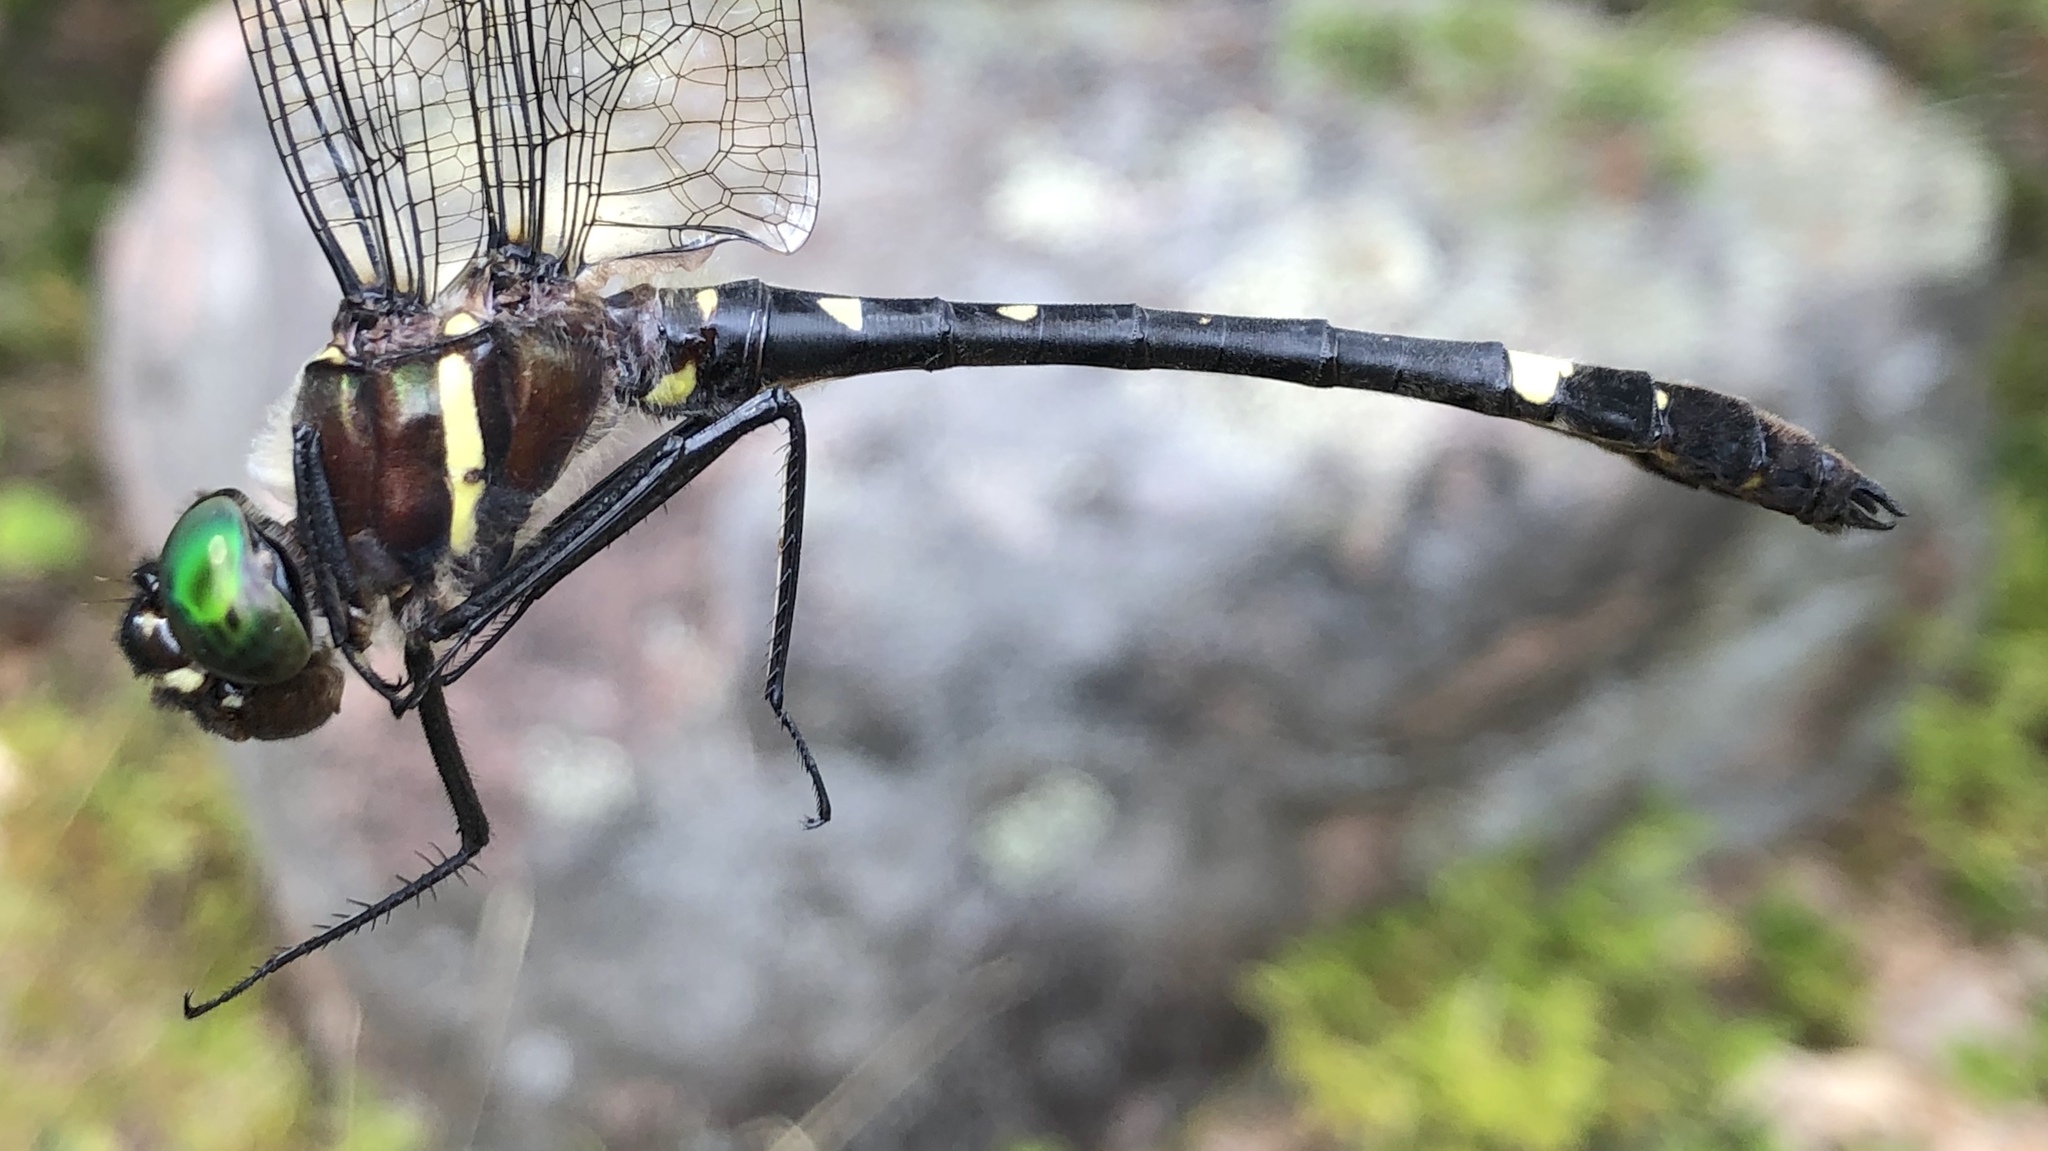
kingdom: Animalia
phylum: Arthropoda
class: Insecta
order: Odonata
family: Macromiidae
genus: Macromia
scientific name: Macromia illinoiensis
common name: Swift river cruiser
